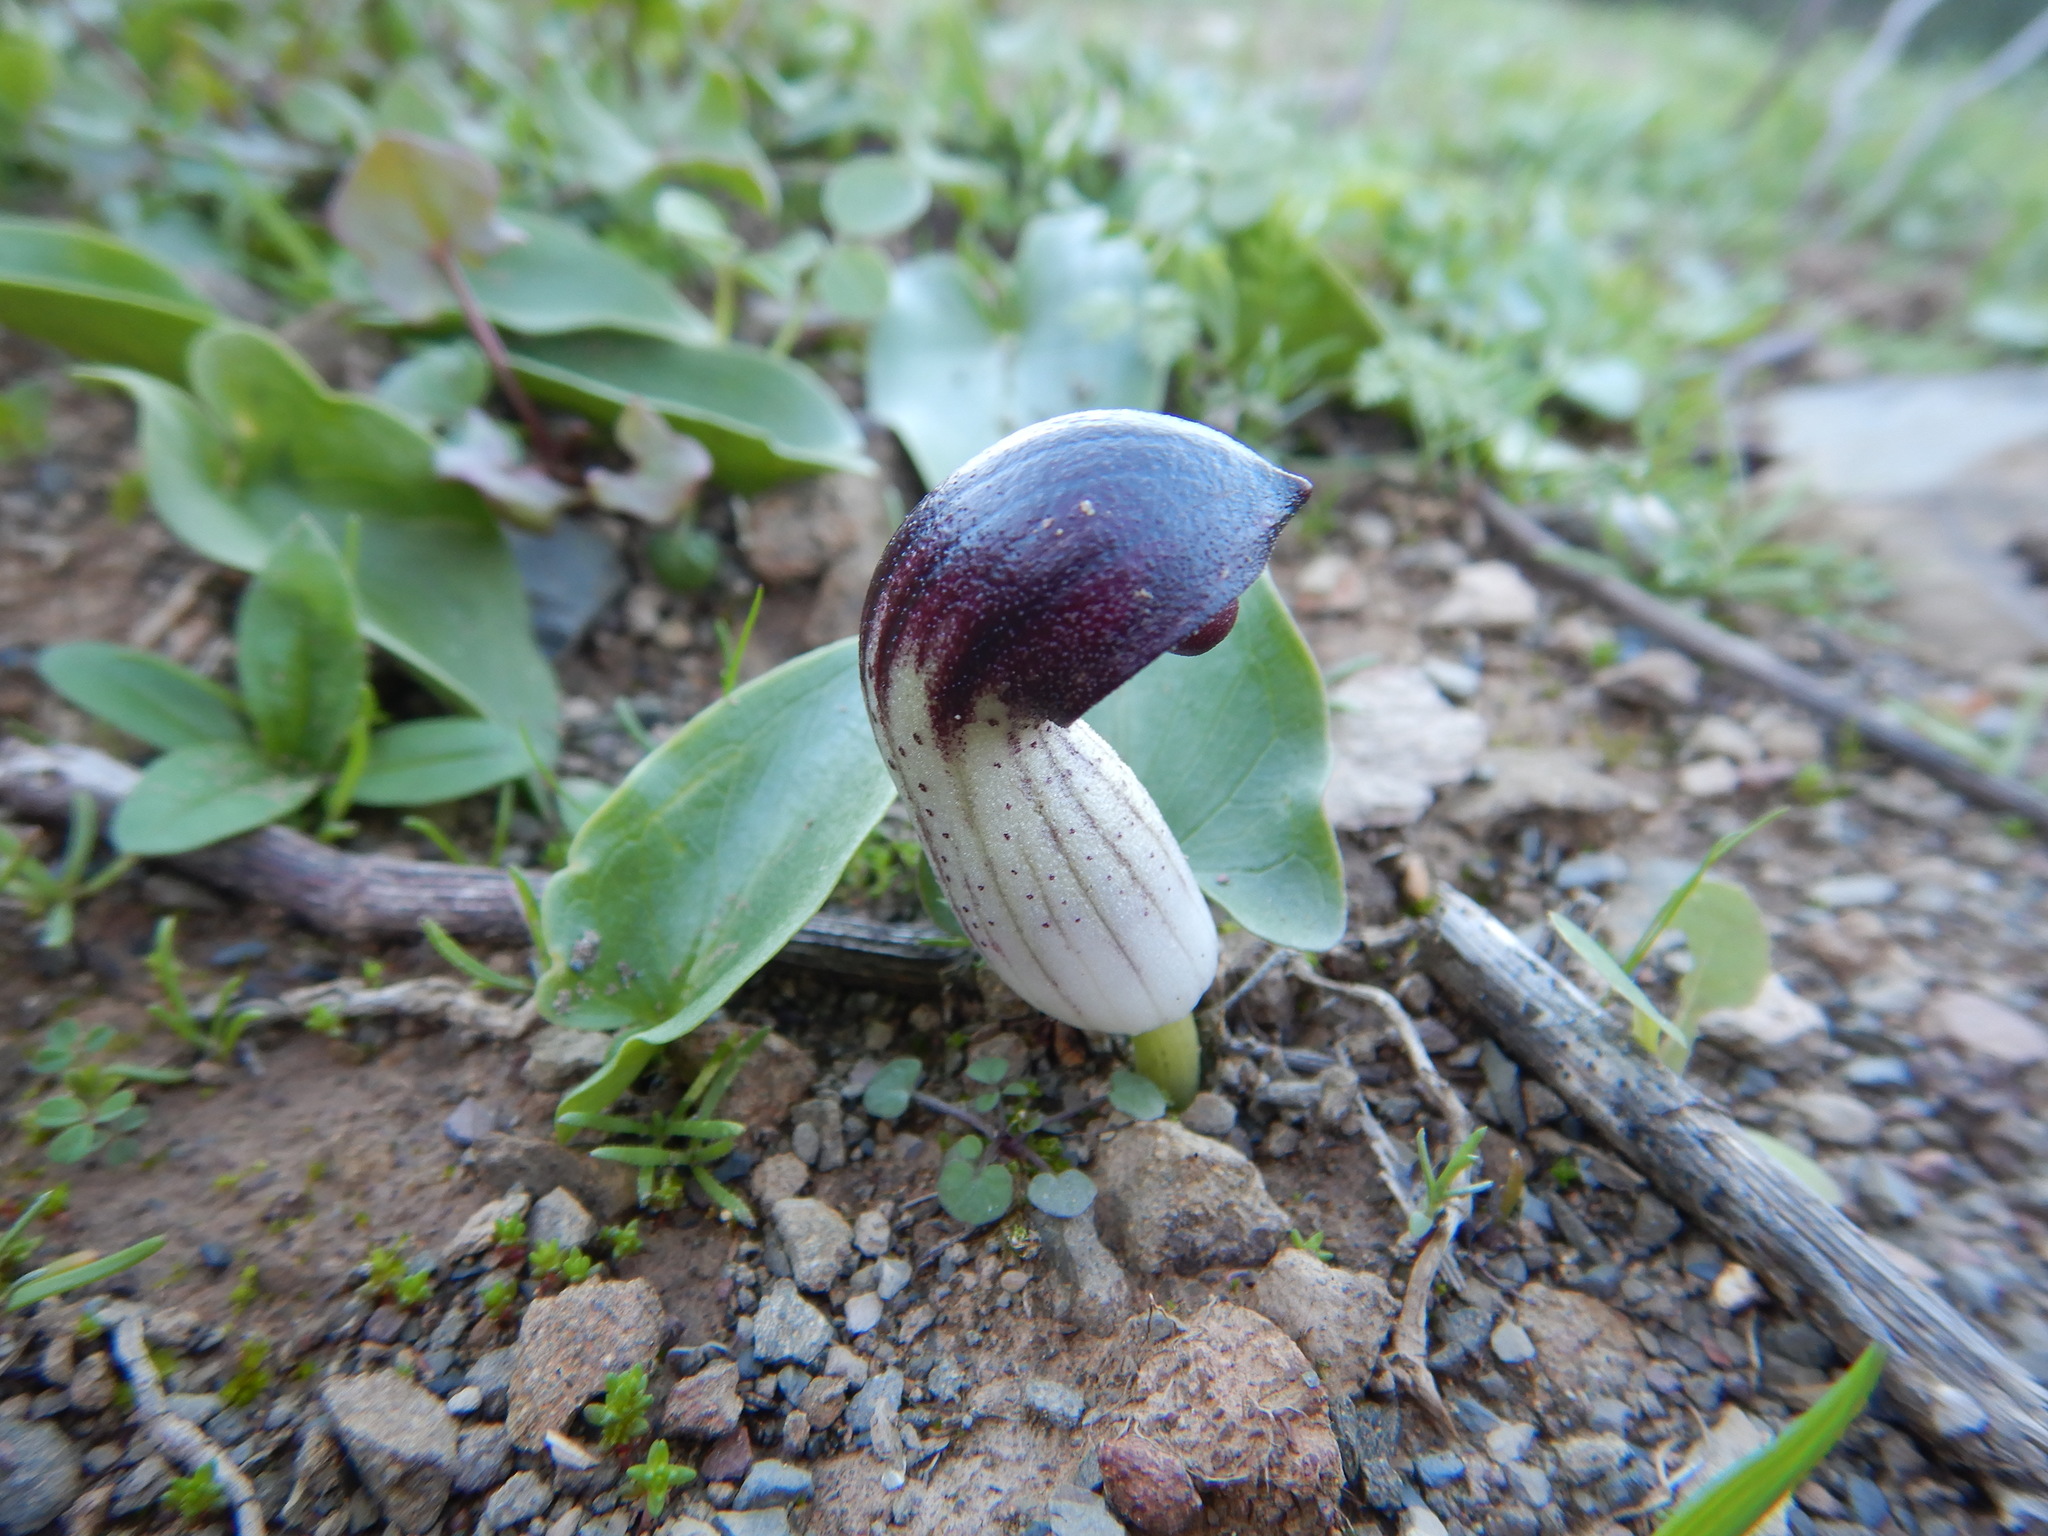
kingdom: Plantae
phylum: Tracheophyta
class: Liliopsida
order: Alismatales
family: Araceae
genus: Arisarum
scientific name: Arisarum simorrhinum
